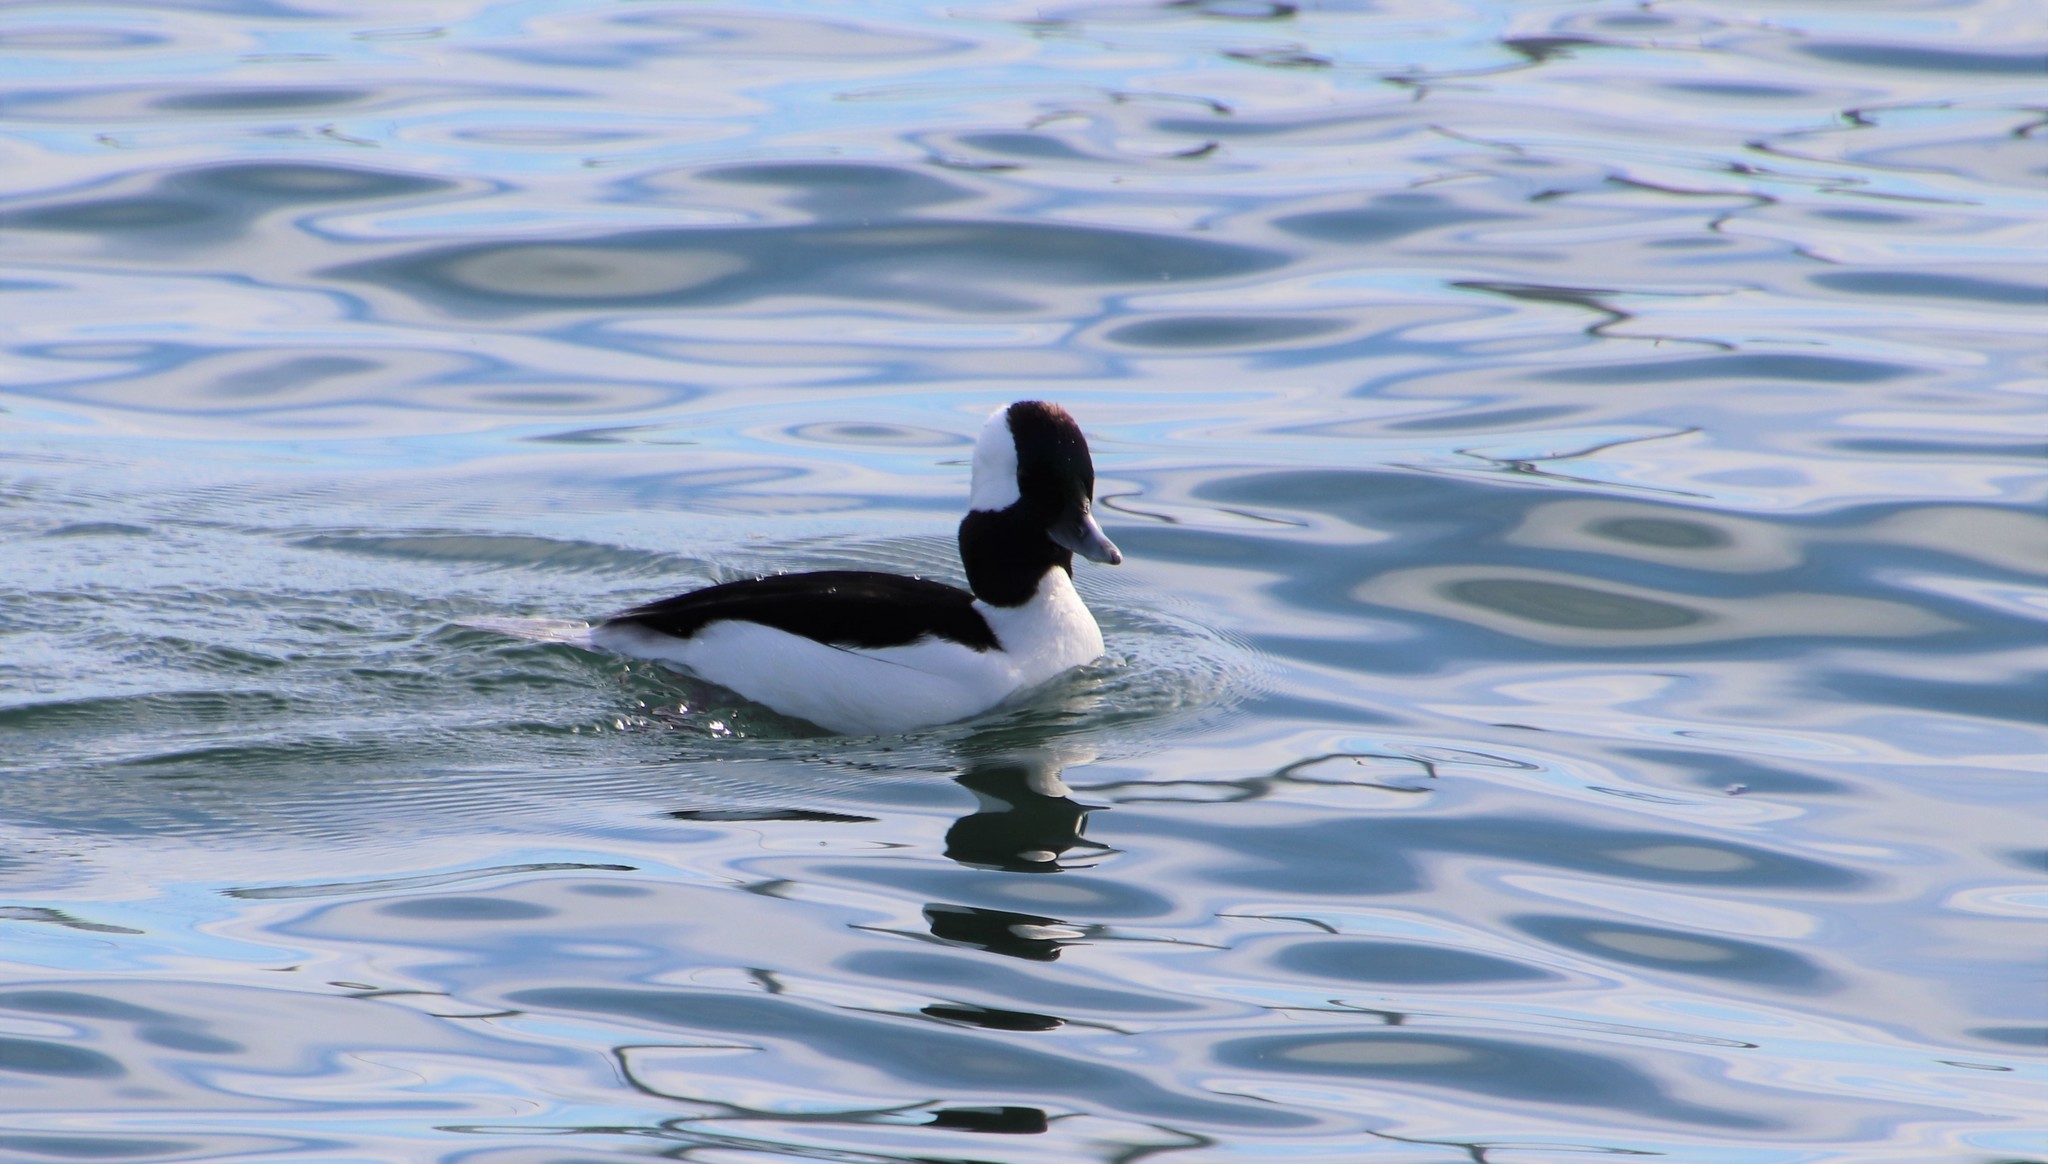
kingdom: Animalia
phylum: Chordata
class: Aves
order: Anseriformes
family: Anatidae
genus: Bucephala
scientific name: Bucephala albeola
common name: Bufflehead
